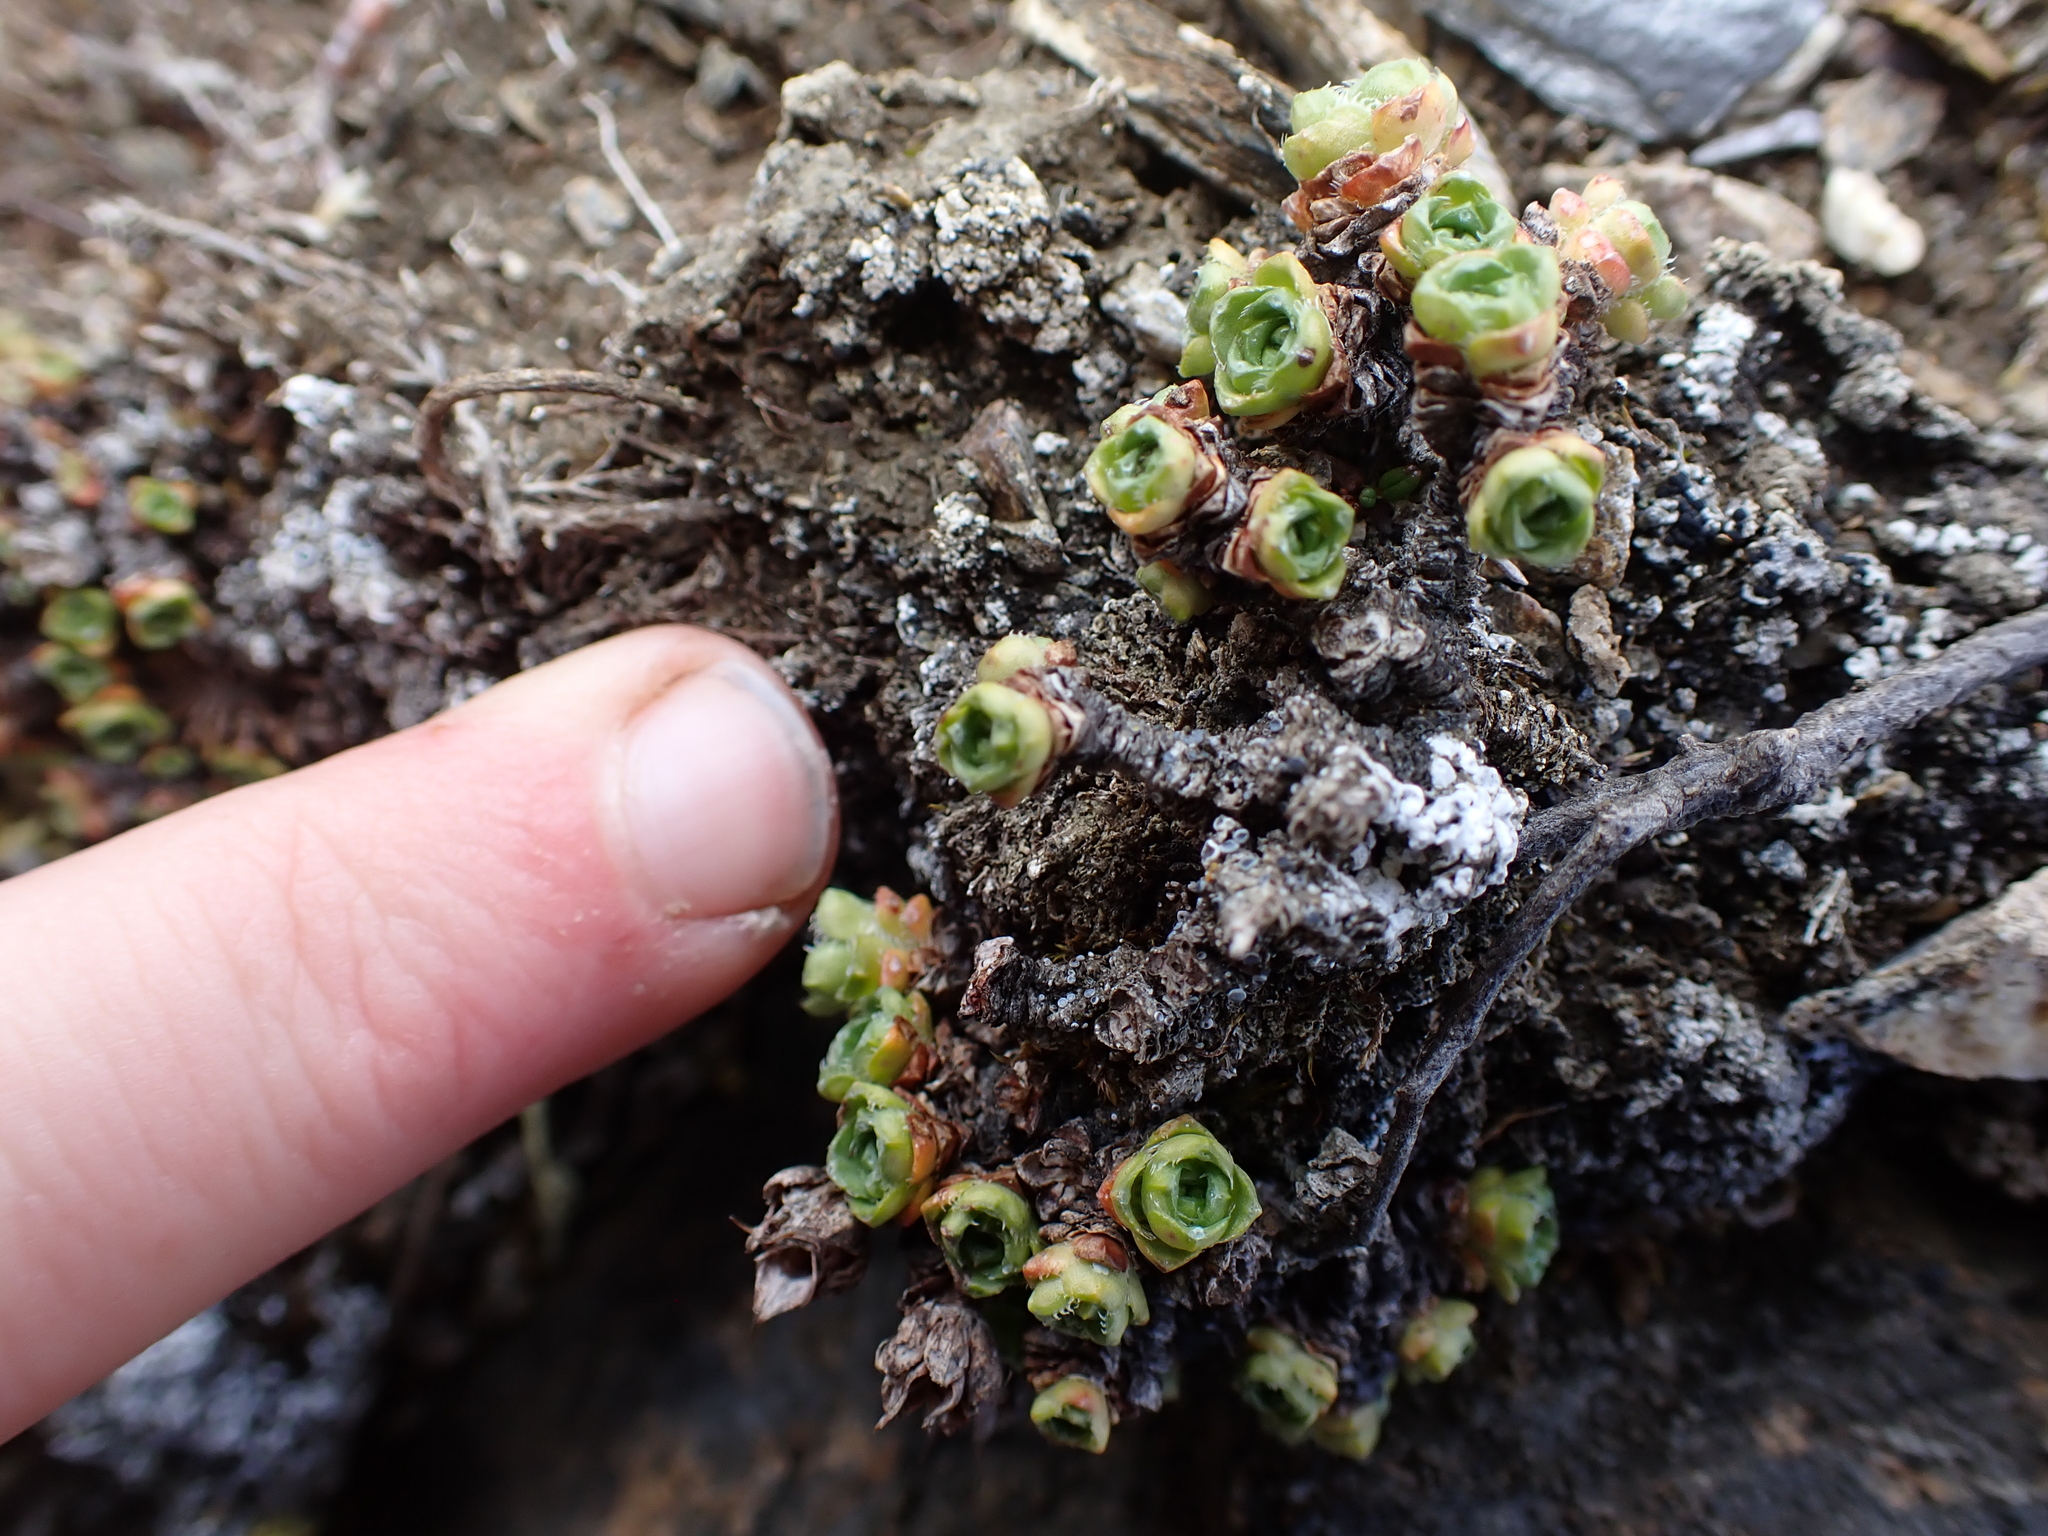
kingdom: Plantae
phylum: Tracheophyta
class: Magnoliopsida
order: Saxifragales
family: Saxifragaceae
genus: Saxifraga
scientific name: Saxifraga oppositifolia
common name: Purple saxifrage
